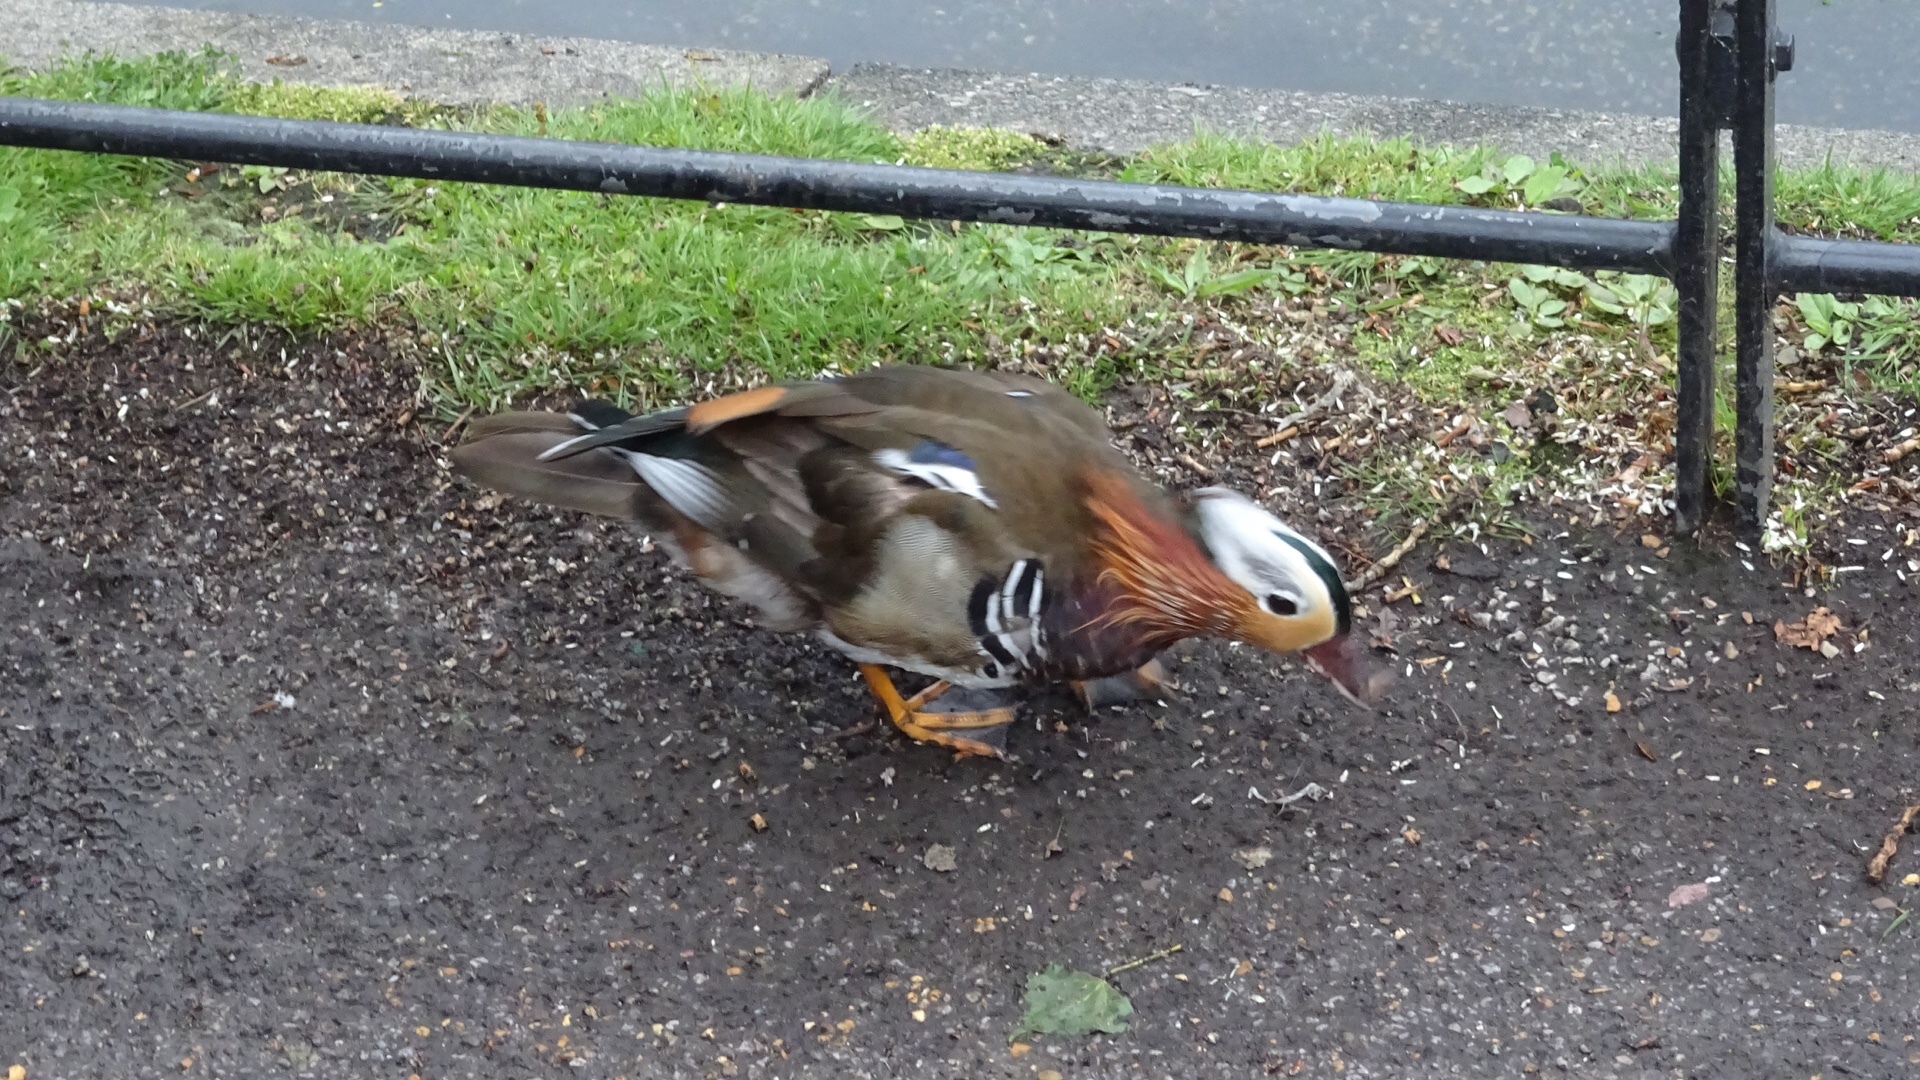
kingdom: Animalia
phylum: Chordata
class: Aves
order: Anseriformes
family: Anatidae
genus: Aix
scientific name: Aix galericulata
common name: Mandarin duck
